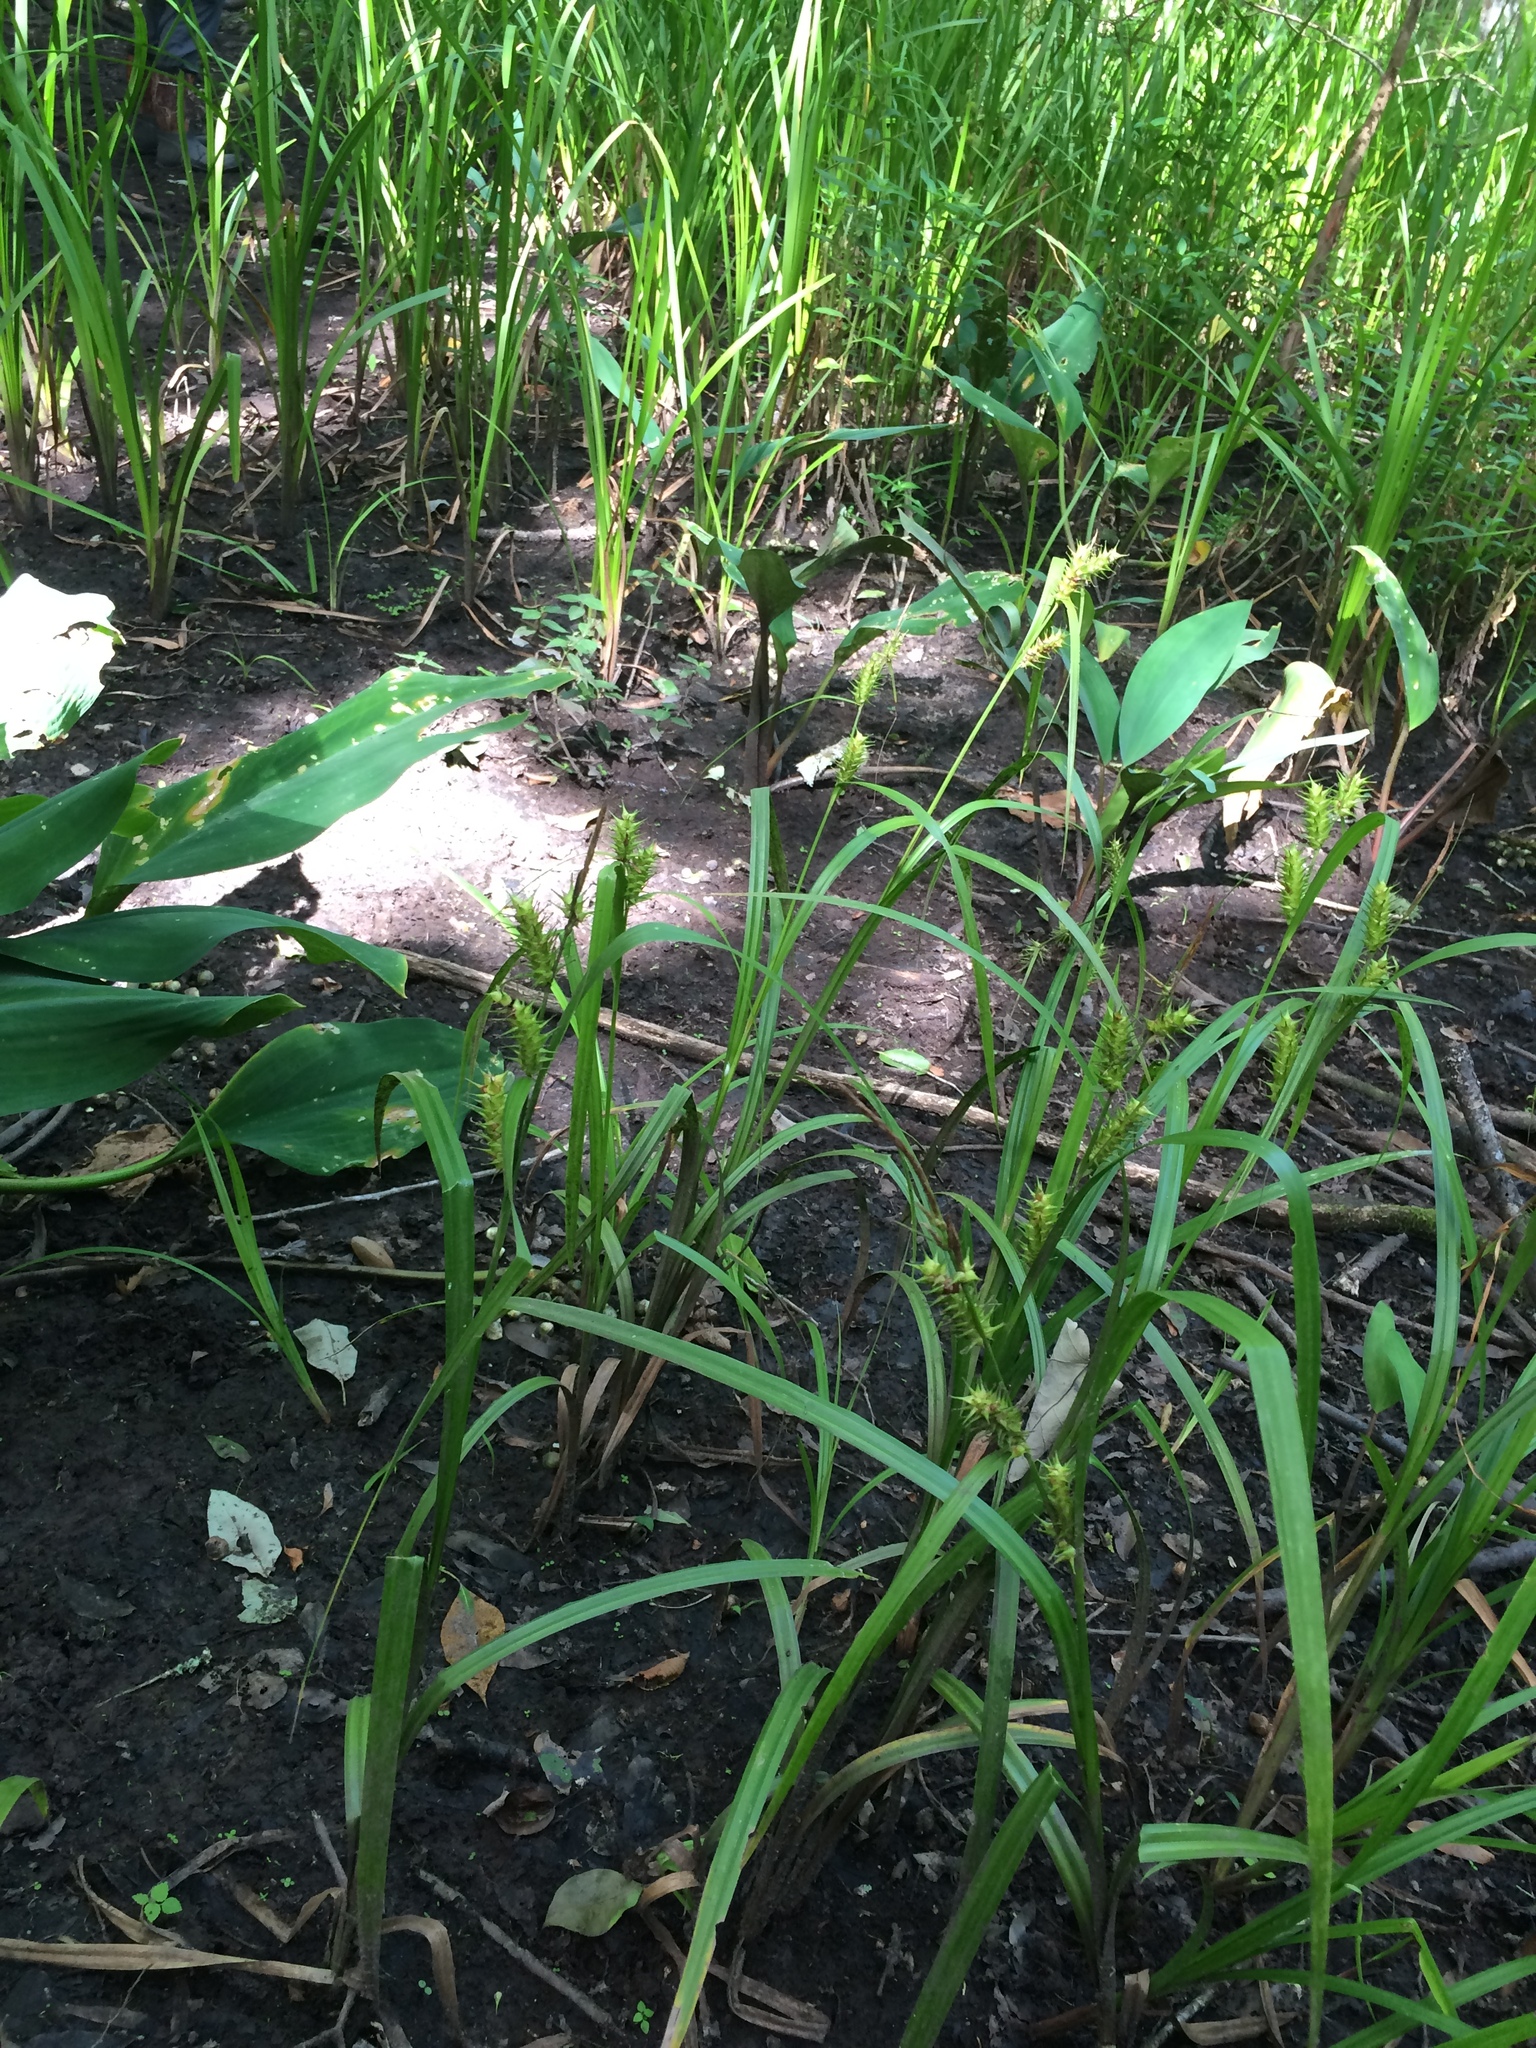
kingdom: Plantae
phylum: Tracheophyta
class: Liliopsida
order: Poales
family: Cyperaceae
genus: Carex
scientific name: Carex gigantea
